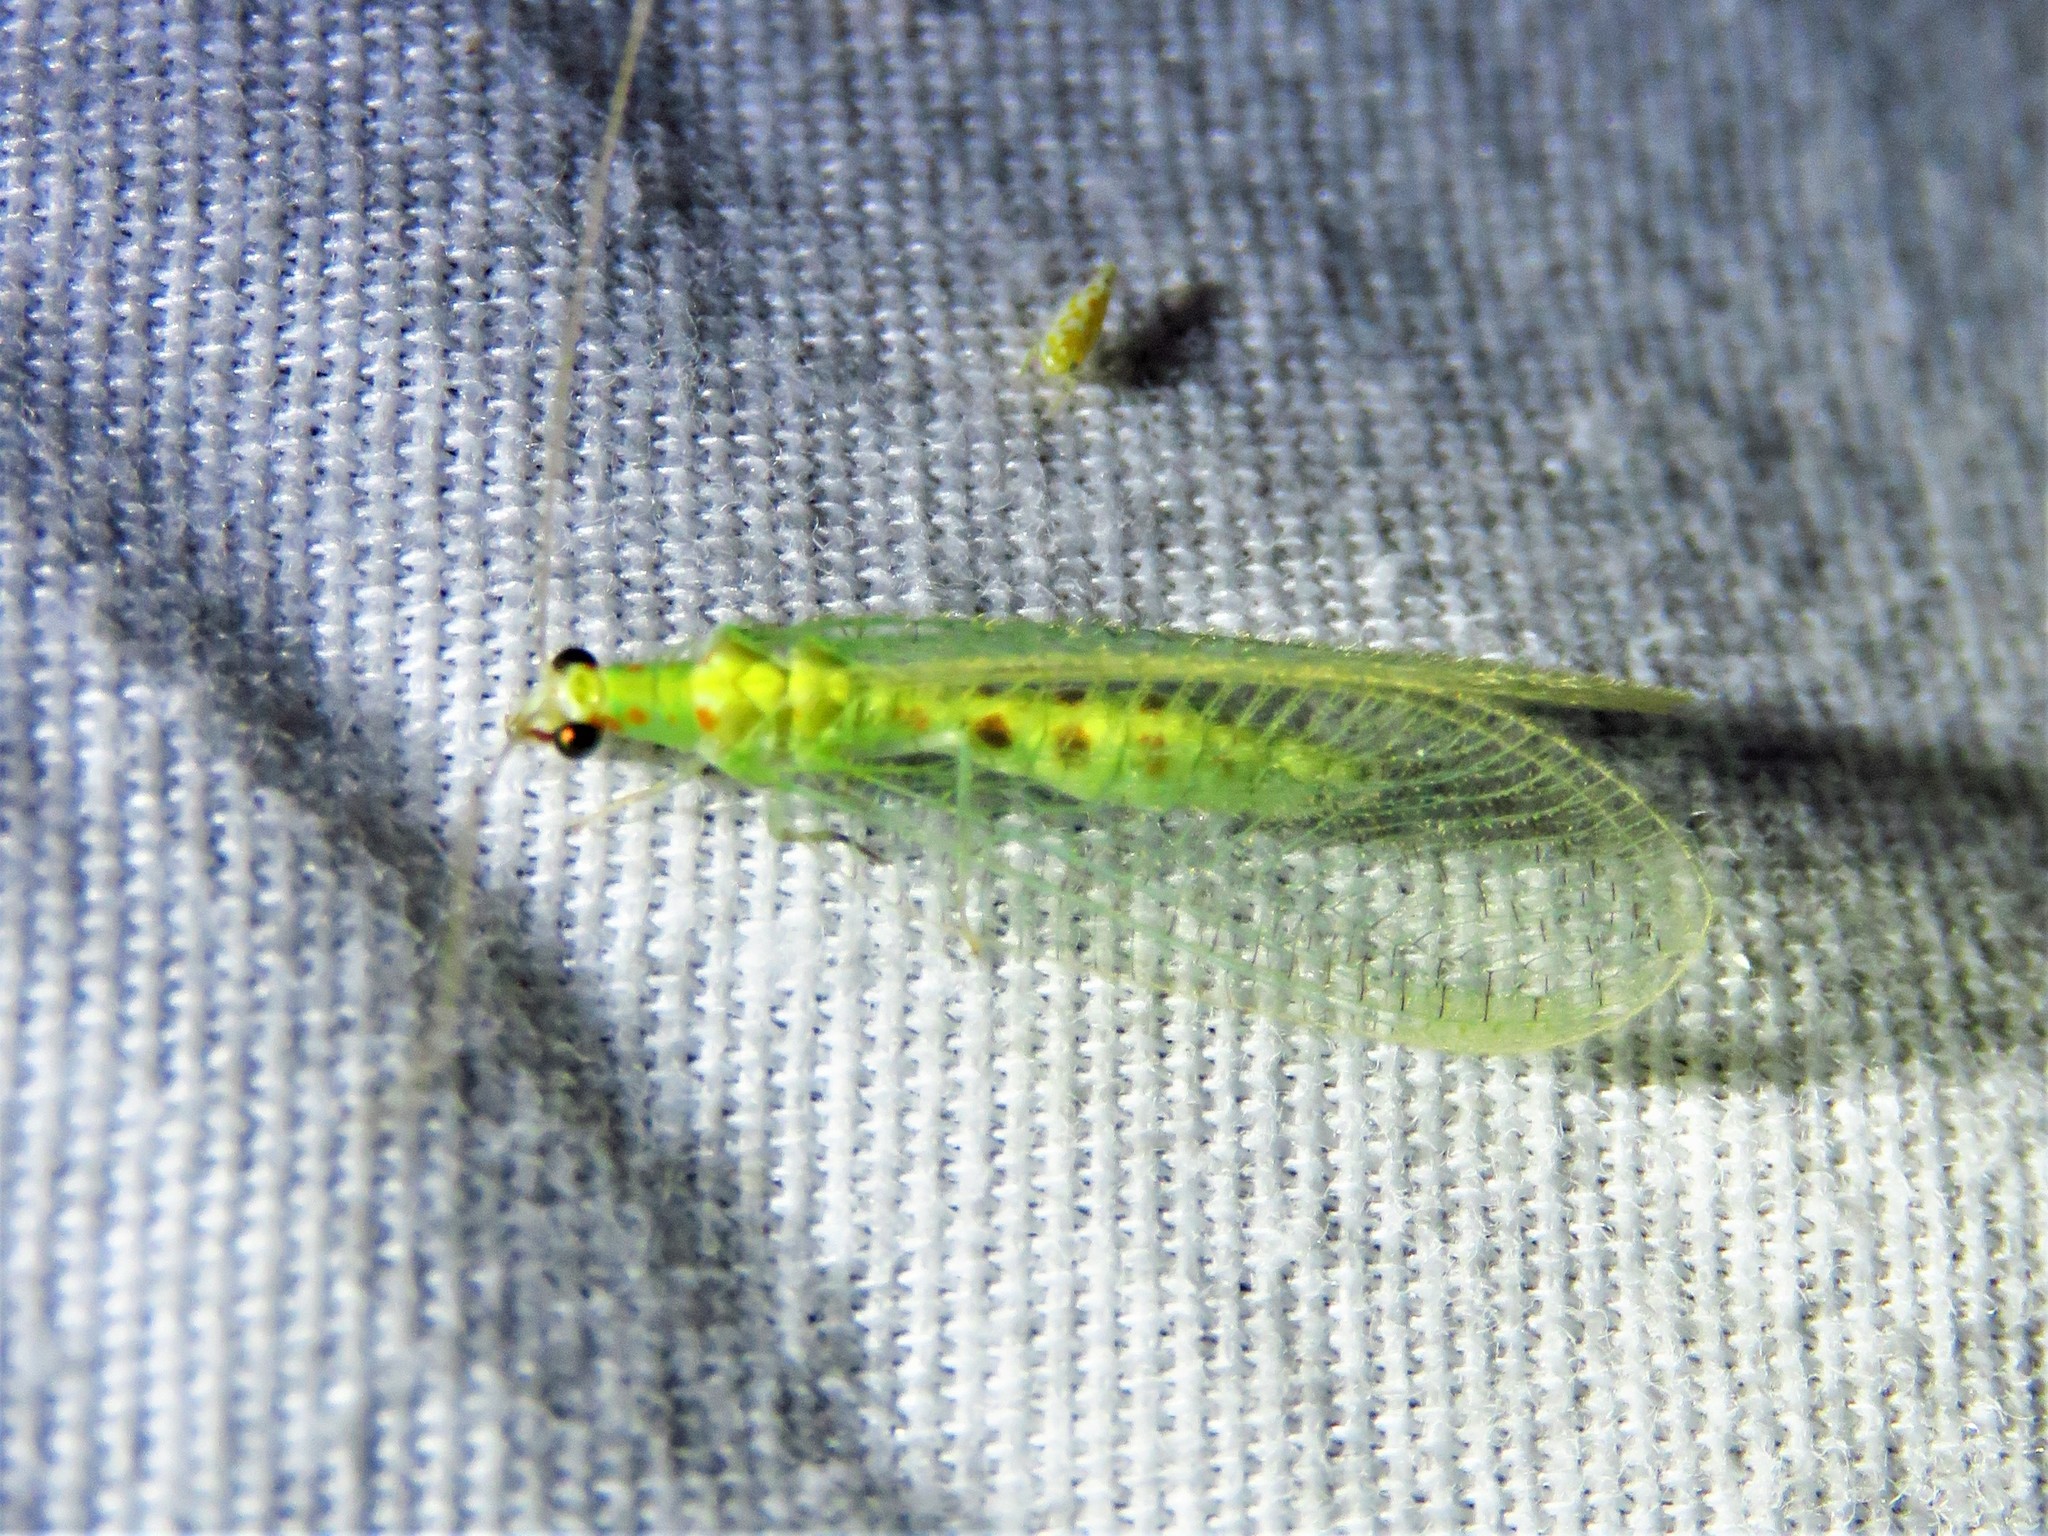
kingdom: Animalia
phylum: Arthropoda
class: Insecta
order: Neuroptera
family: Chrysopidae
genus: Chrysopa
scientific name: Chrysopa quadripunctata
